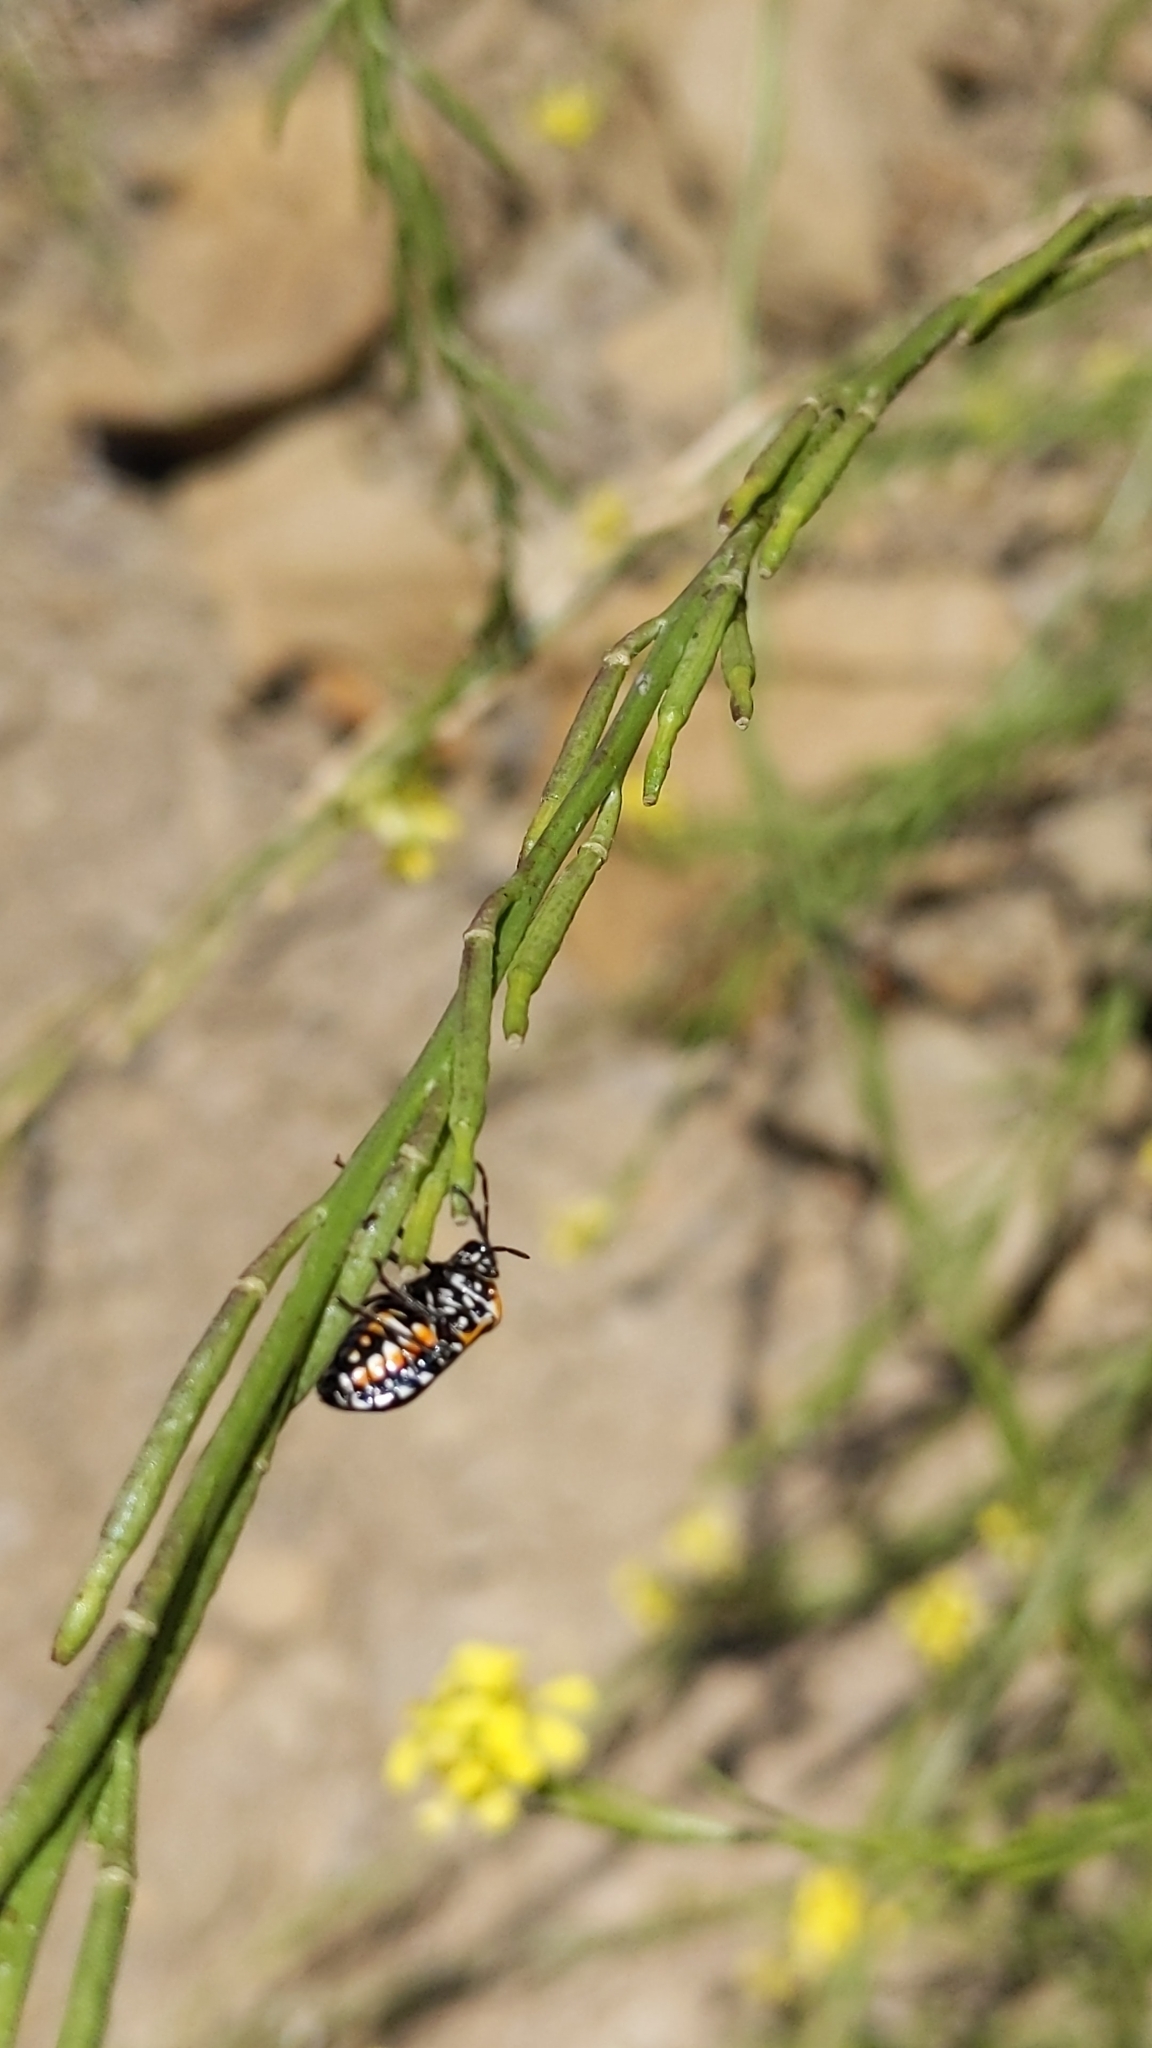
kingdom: Animalia
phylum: Arthropoda
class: Insecta
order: Hemiptera
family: Pentatomidae
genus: Murgantia
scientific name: Murgantia histrionica
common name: Harlequin bug
